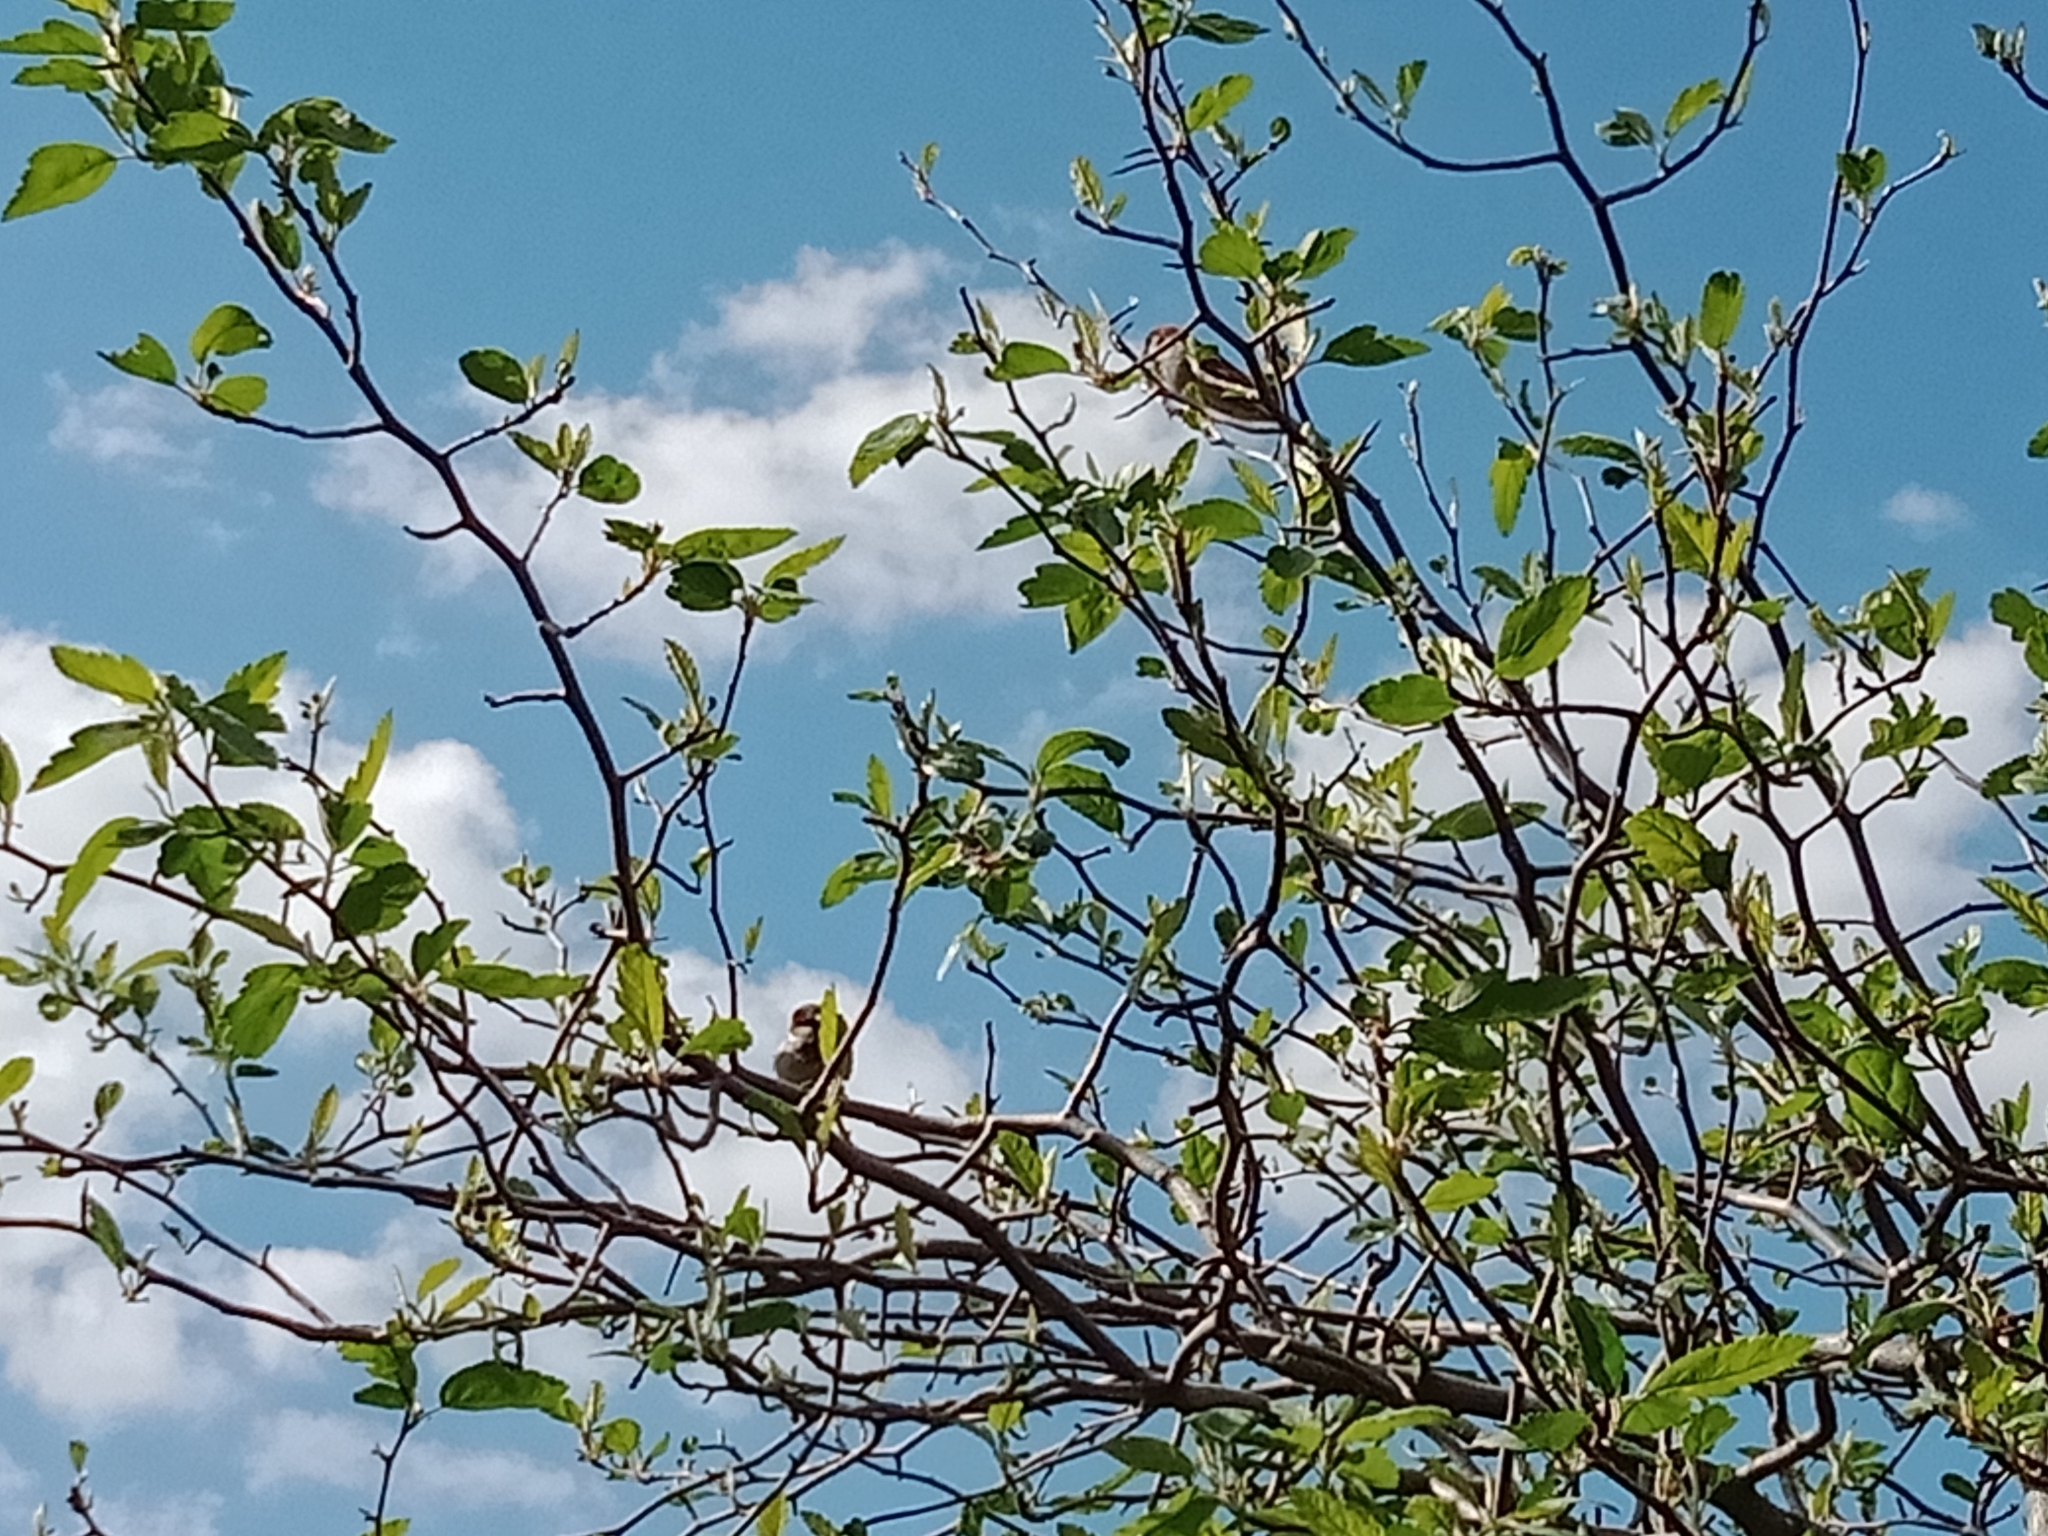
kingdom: Animalia
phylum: Chordata
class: Aves
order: Passeriformes
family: Passeridae
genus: Passer
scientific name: Passer domesticus
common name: House sparrow
